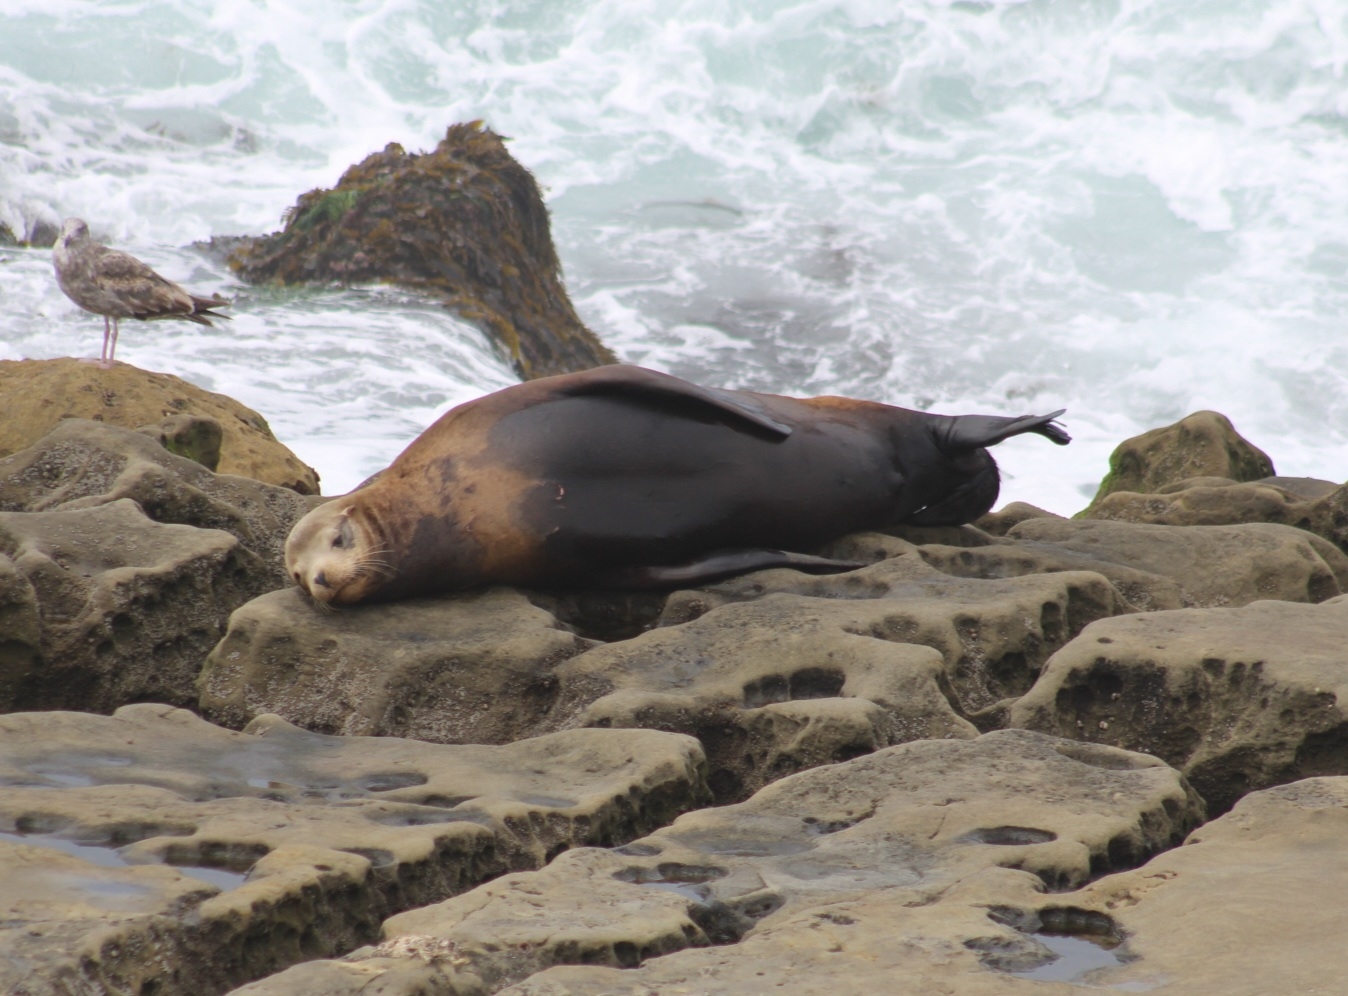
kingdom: Animalia
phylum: Chordata
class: Mammalia
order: Carnivora
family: Otariidae
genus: Zalophus
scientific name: Zalophus californianus
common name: California sea lion
